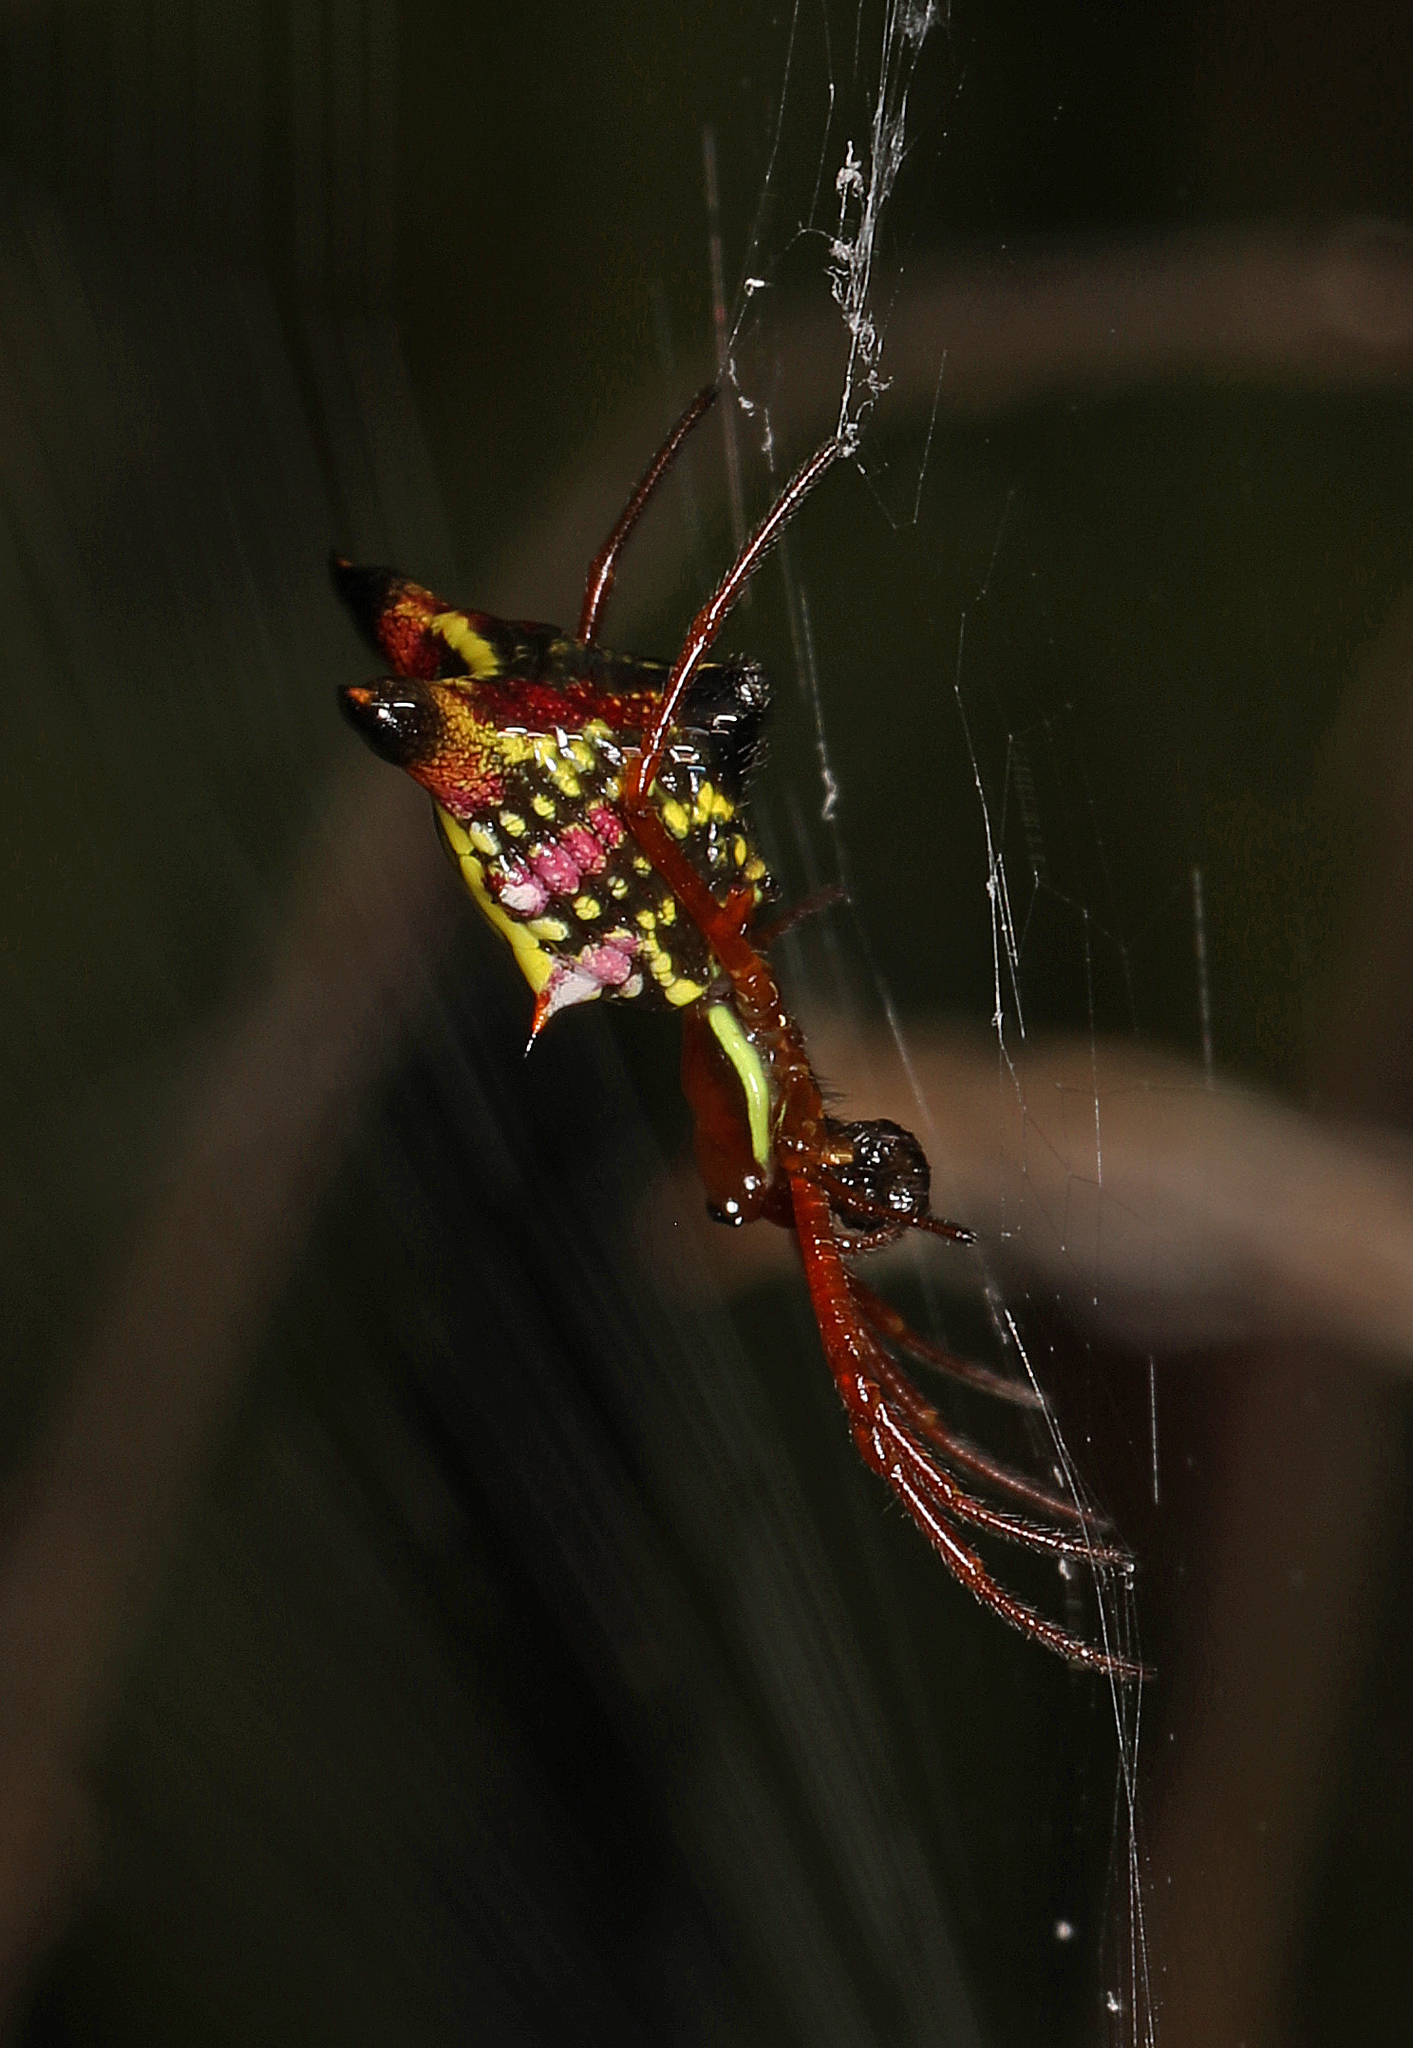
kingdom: Animalia
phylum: Arthropoda
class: Arachnida
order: Araneae
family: Araneidae
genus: Micrathena
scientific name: Micrathena sagittata
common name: Orb weavers
